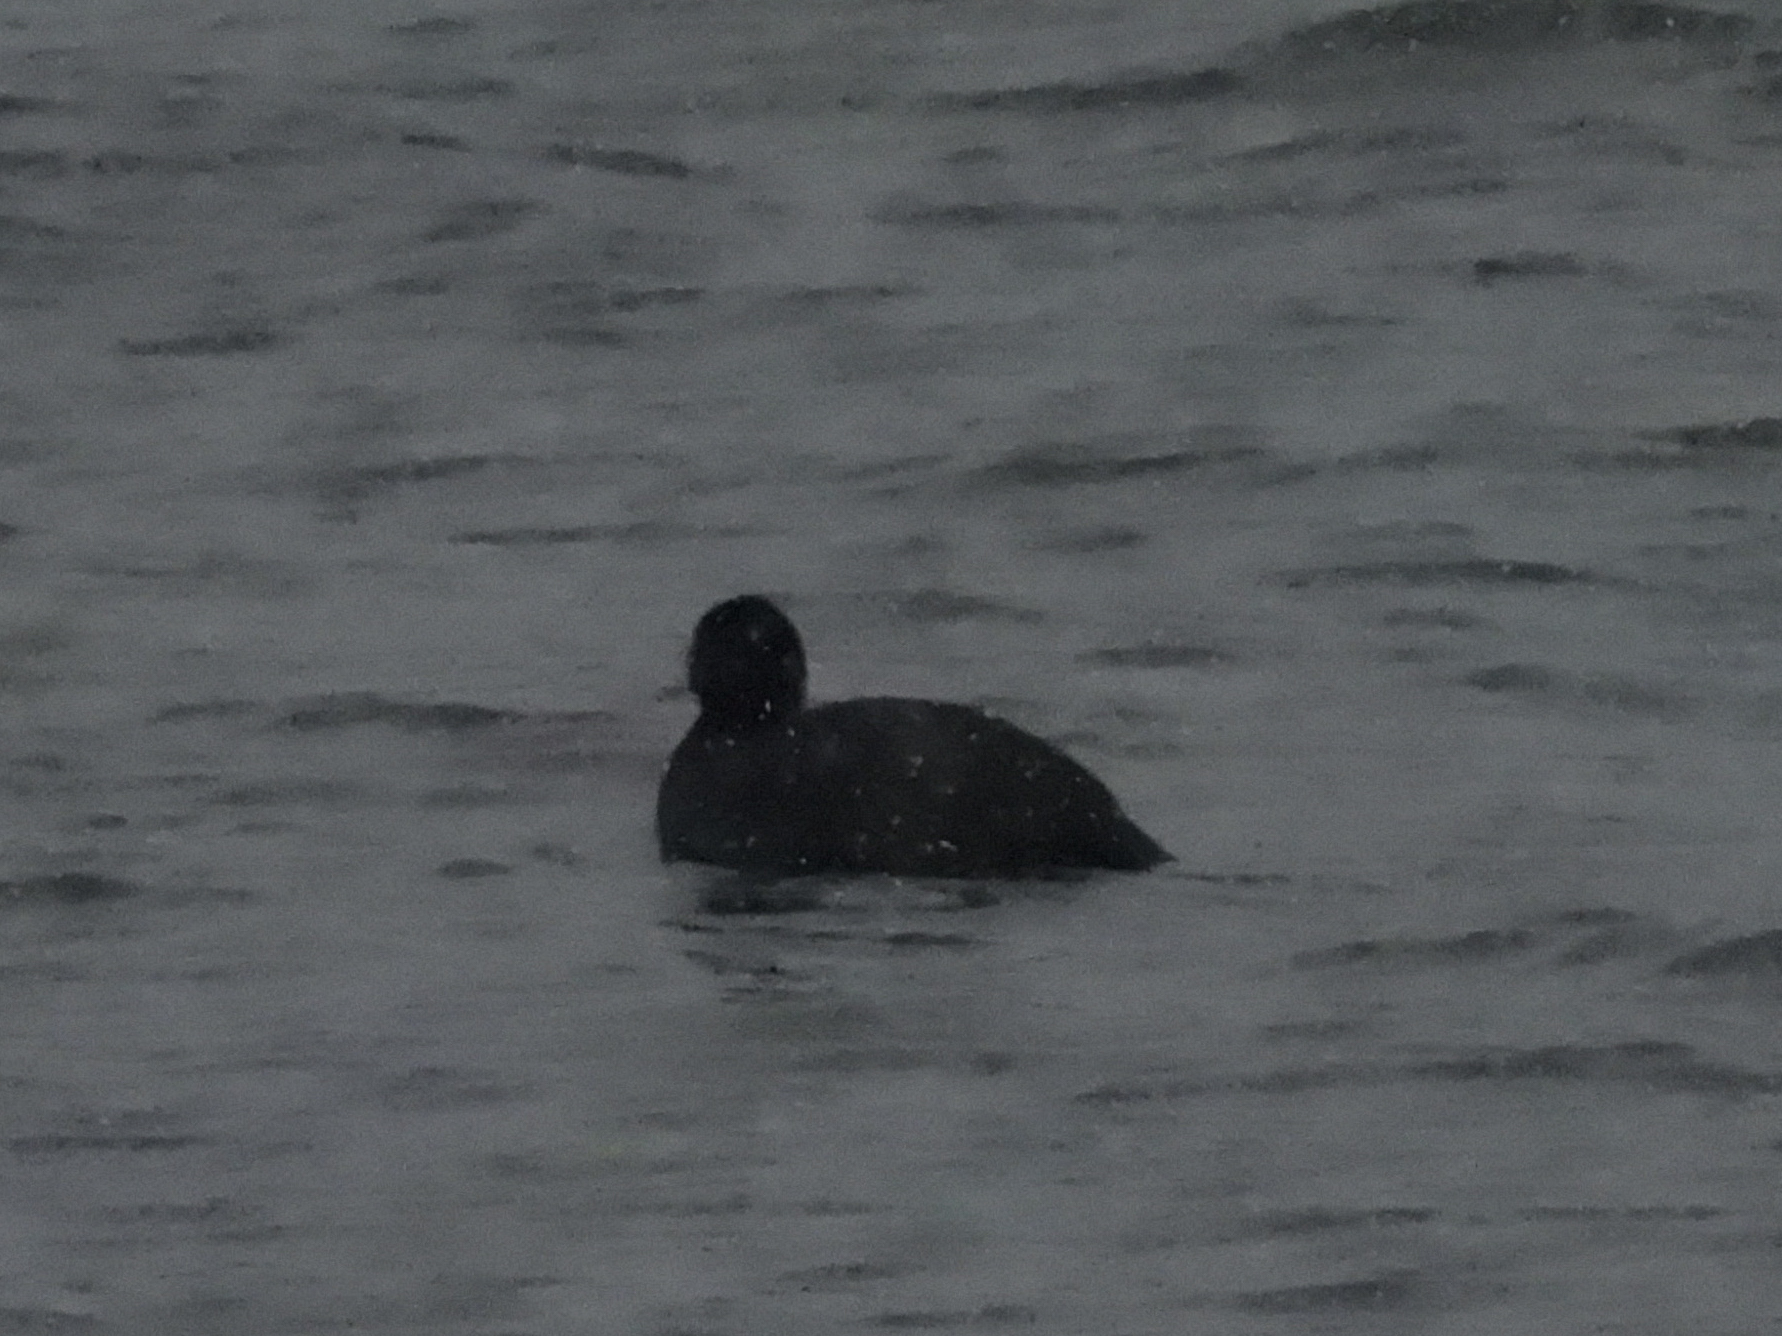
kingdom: Animalia
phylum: Chordata
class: Aves
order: Gruiformes
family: Rallidae
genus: Fulica
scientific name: Fulica atra
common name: Eurasian coot
